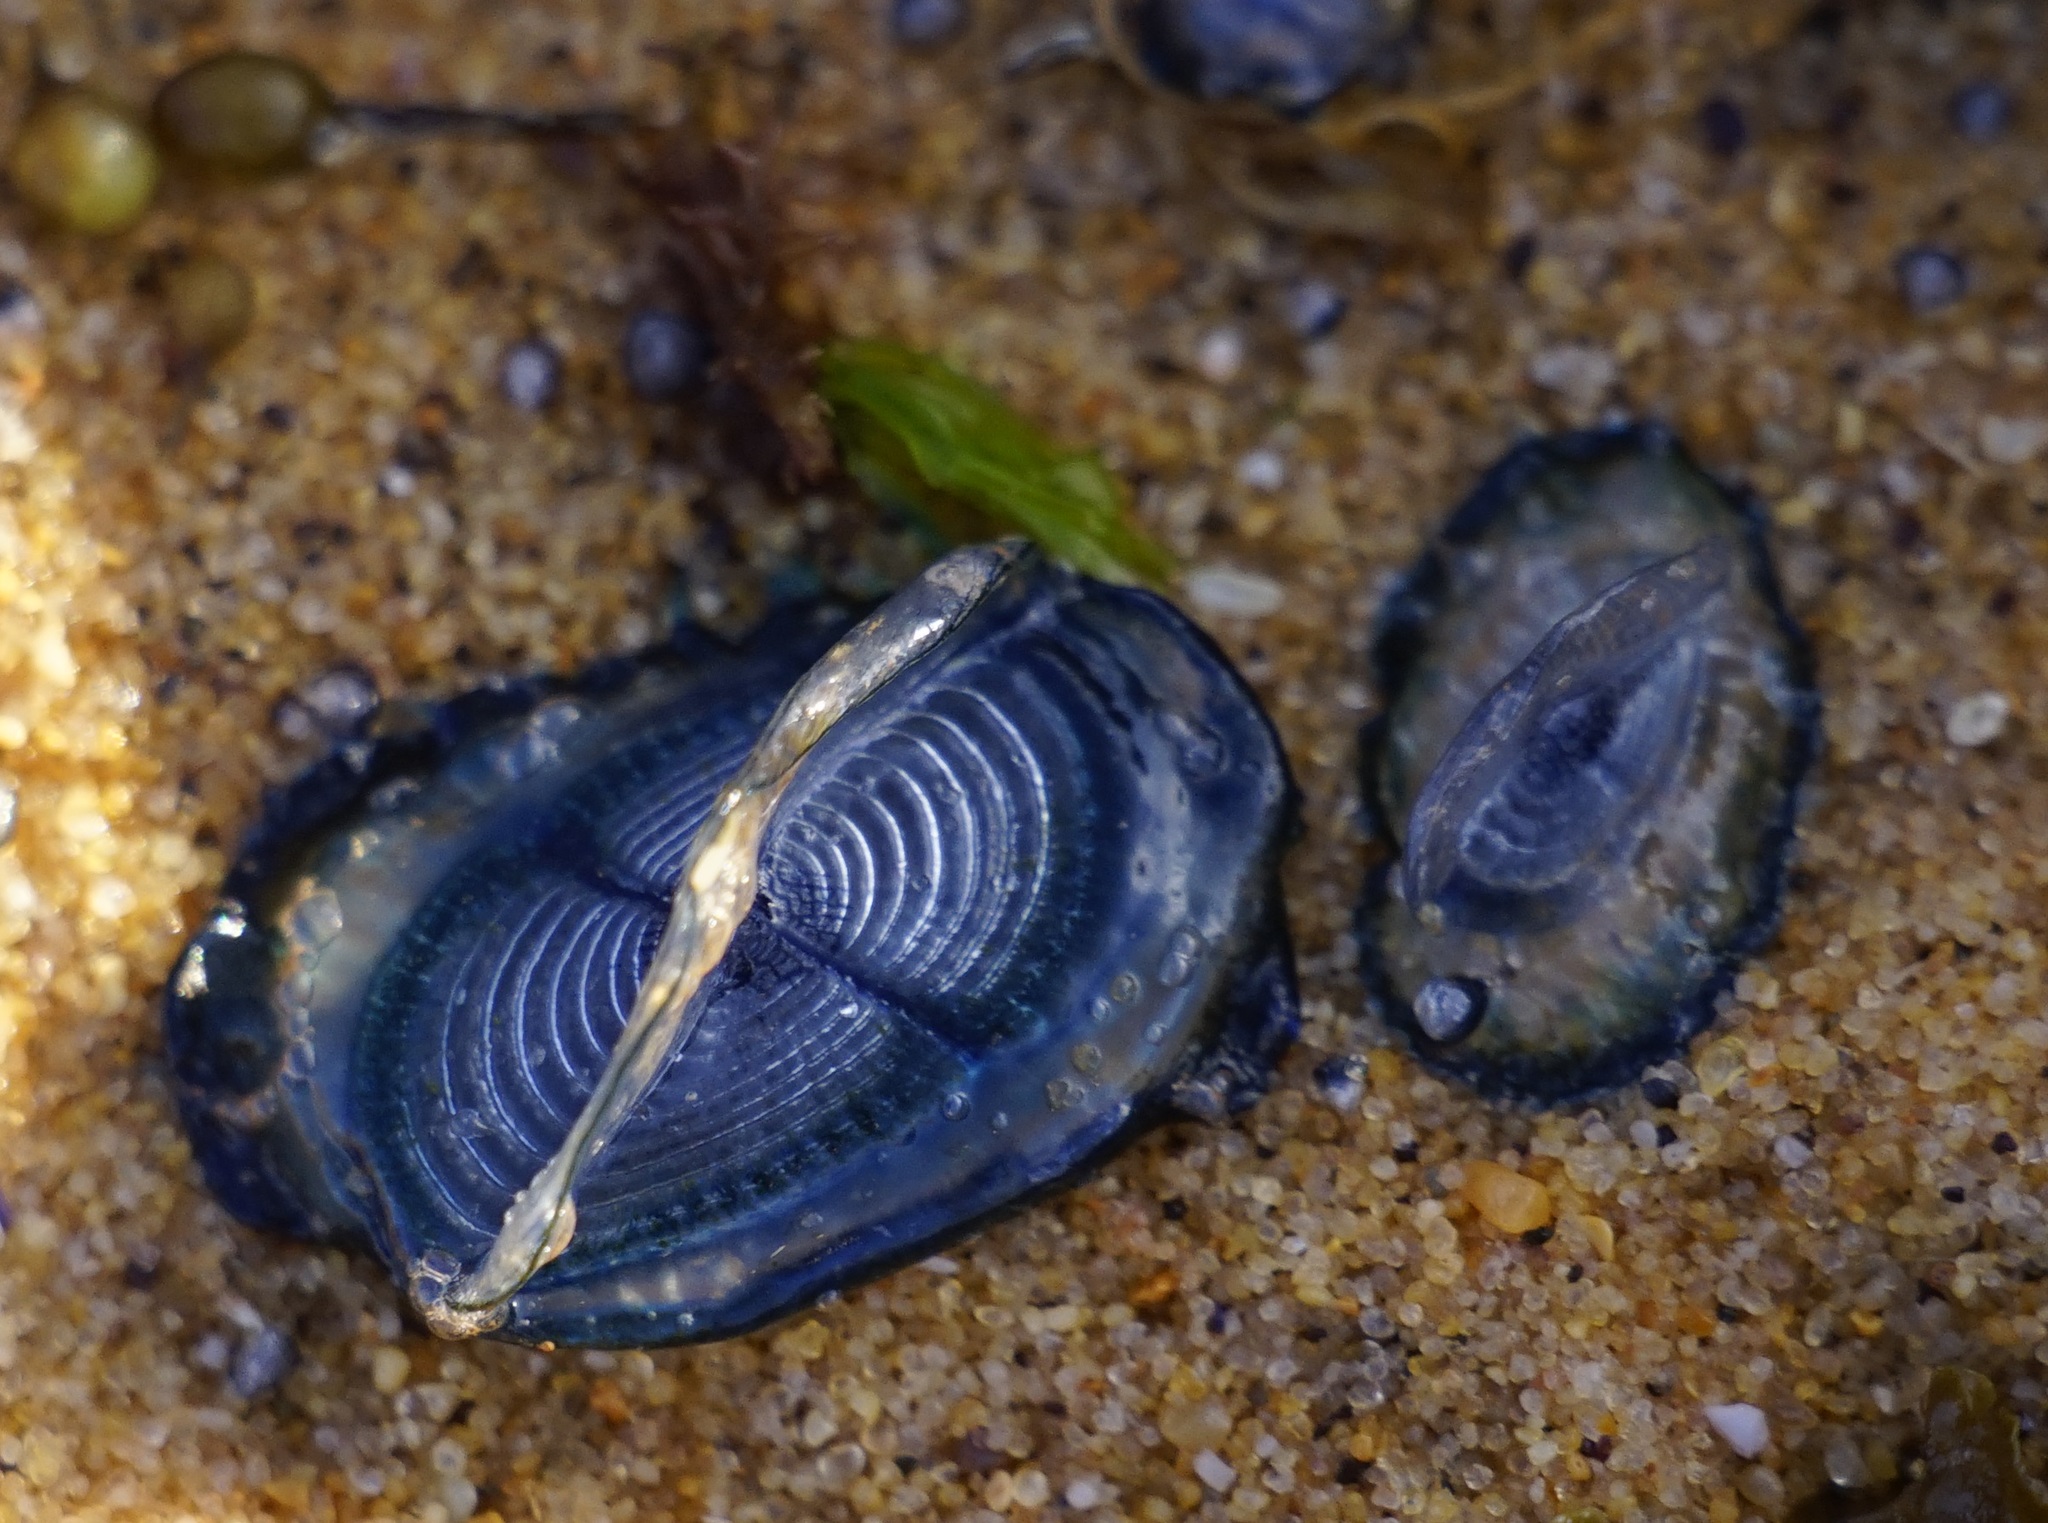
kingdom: Animalia
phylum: Cnidaria
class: Hydrozoa
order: Anthoathecata
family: Porpitidae
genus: Velella
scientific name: Velella velella
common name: By-the-wind-sailor
